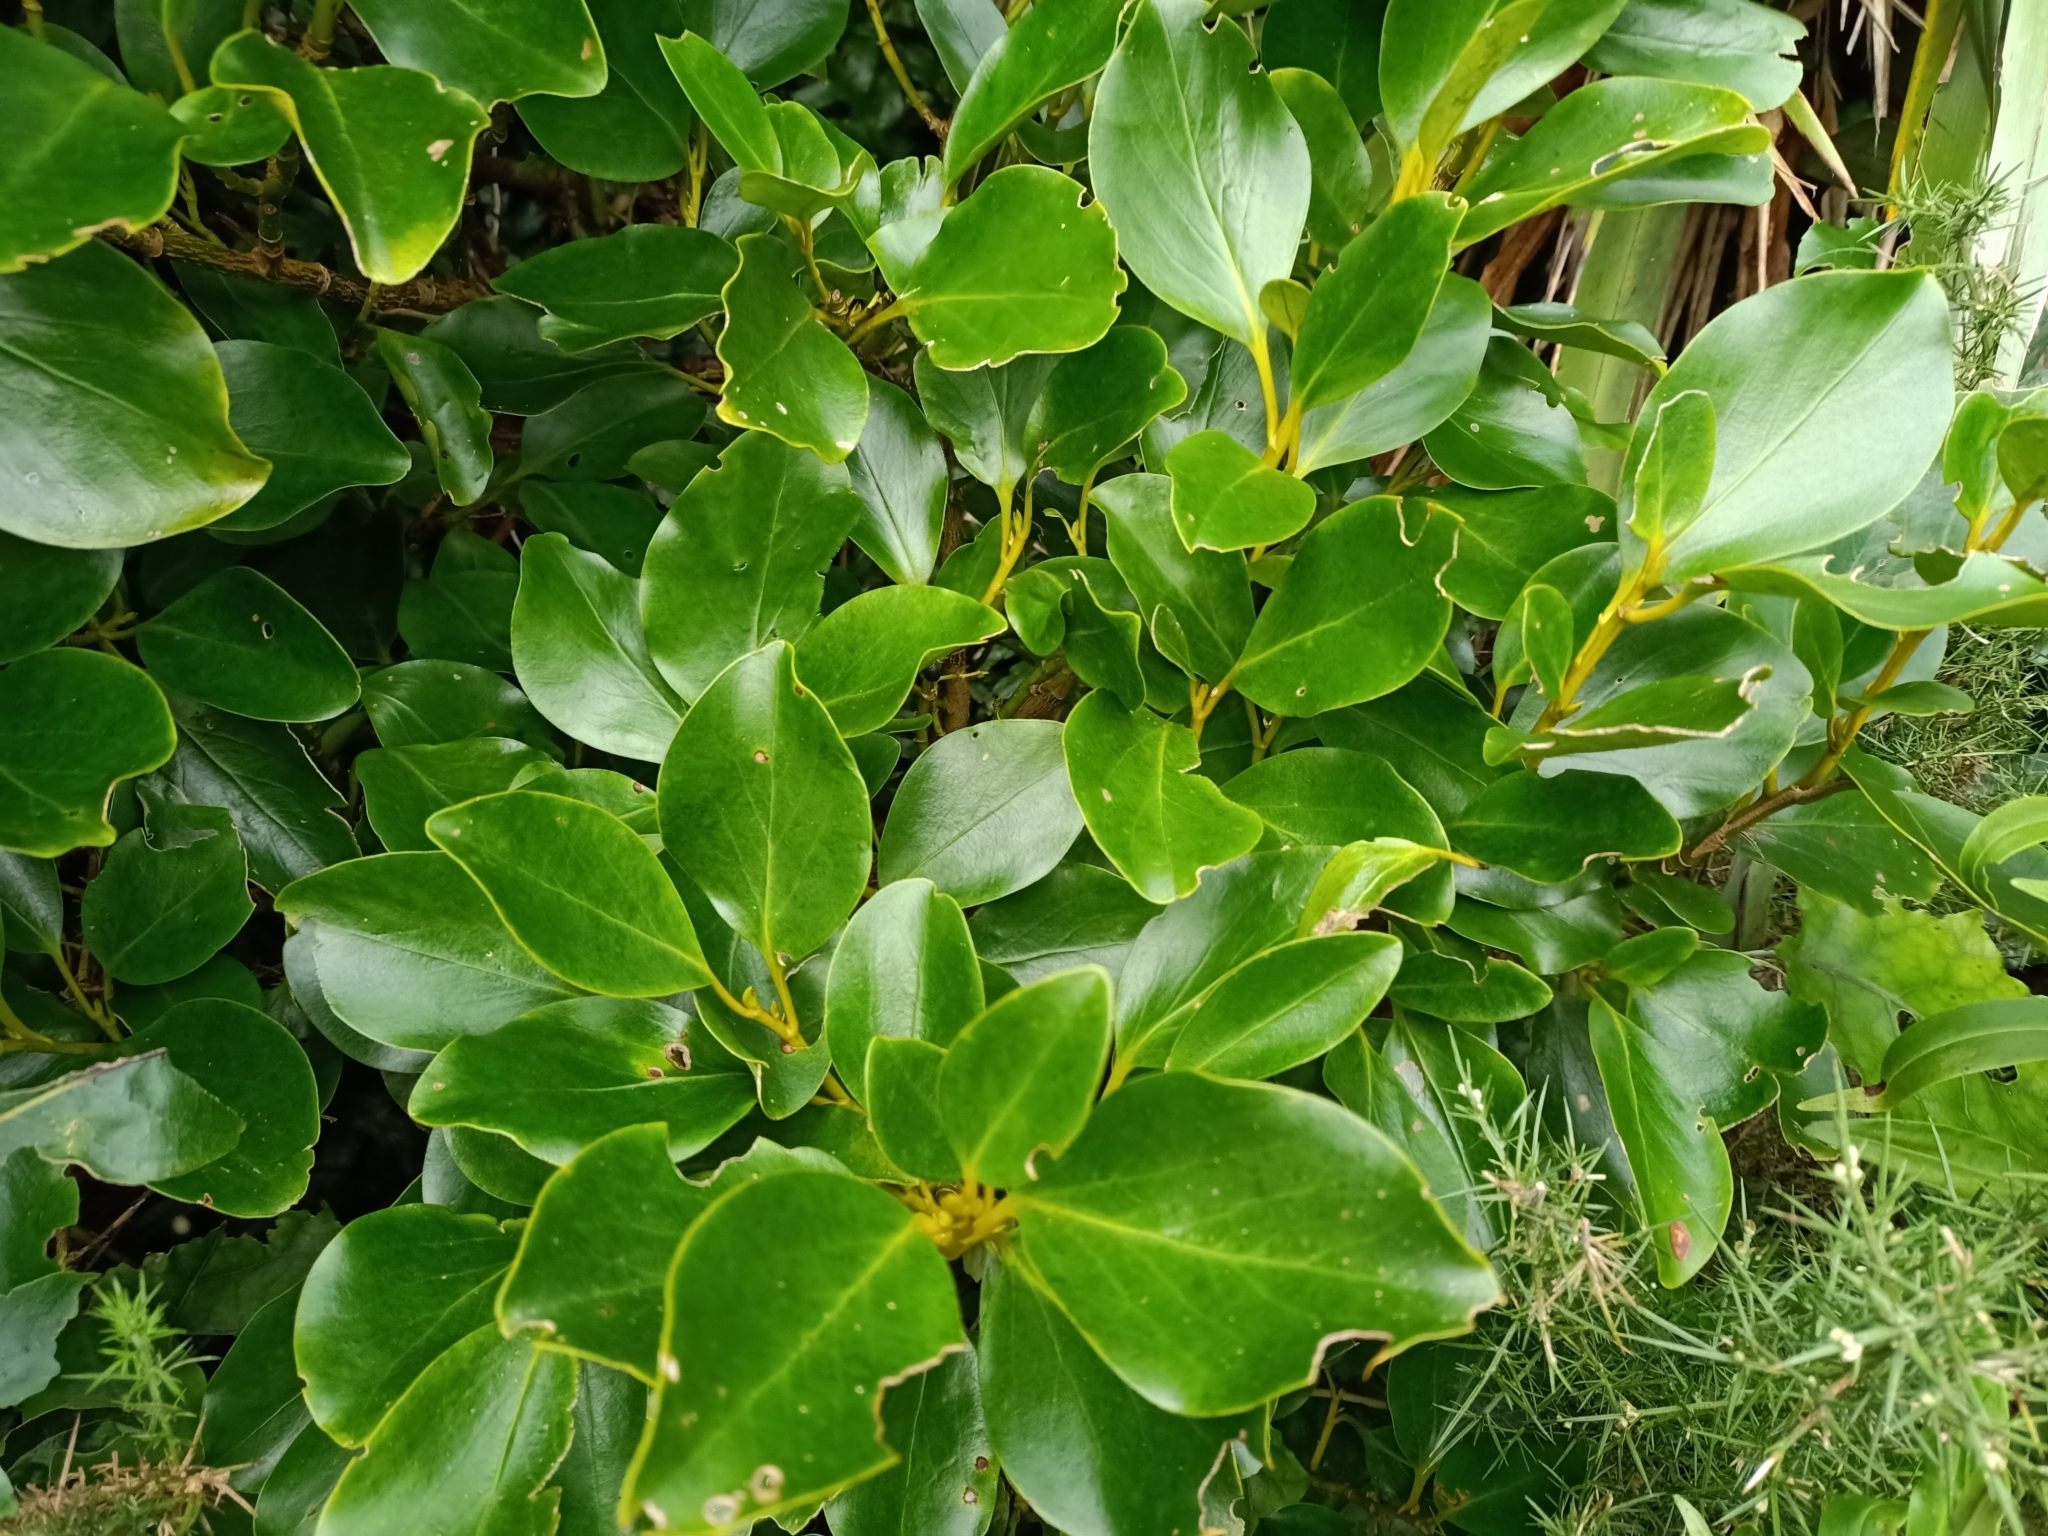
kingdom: Plantae
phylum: Tracheophyta
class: Magnoliopsida
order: Apiales
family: Griseliniaceae
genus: Griselinia
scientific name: Griselinia littoralis
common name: New zealand broadleaf
